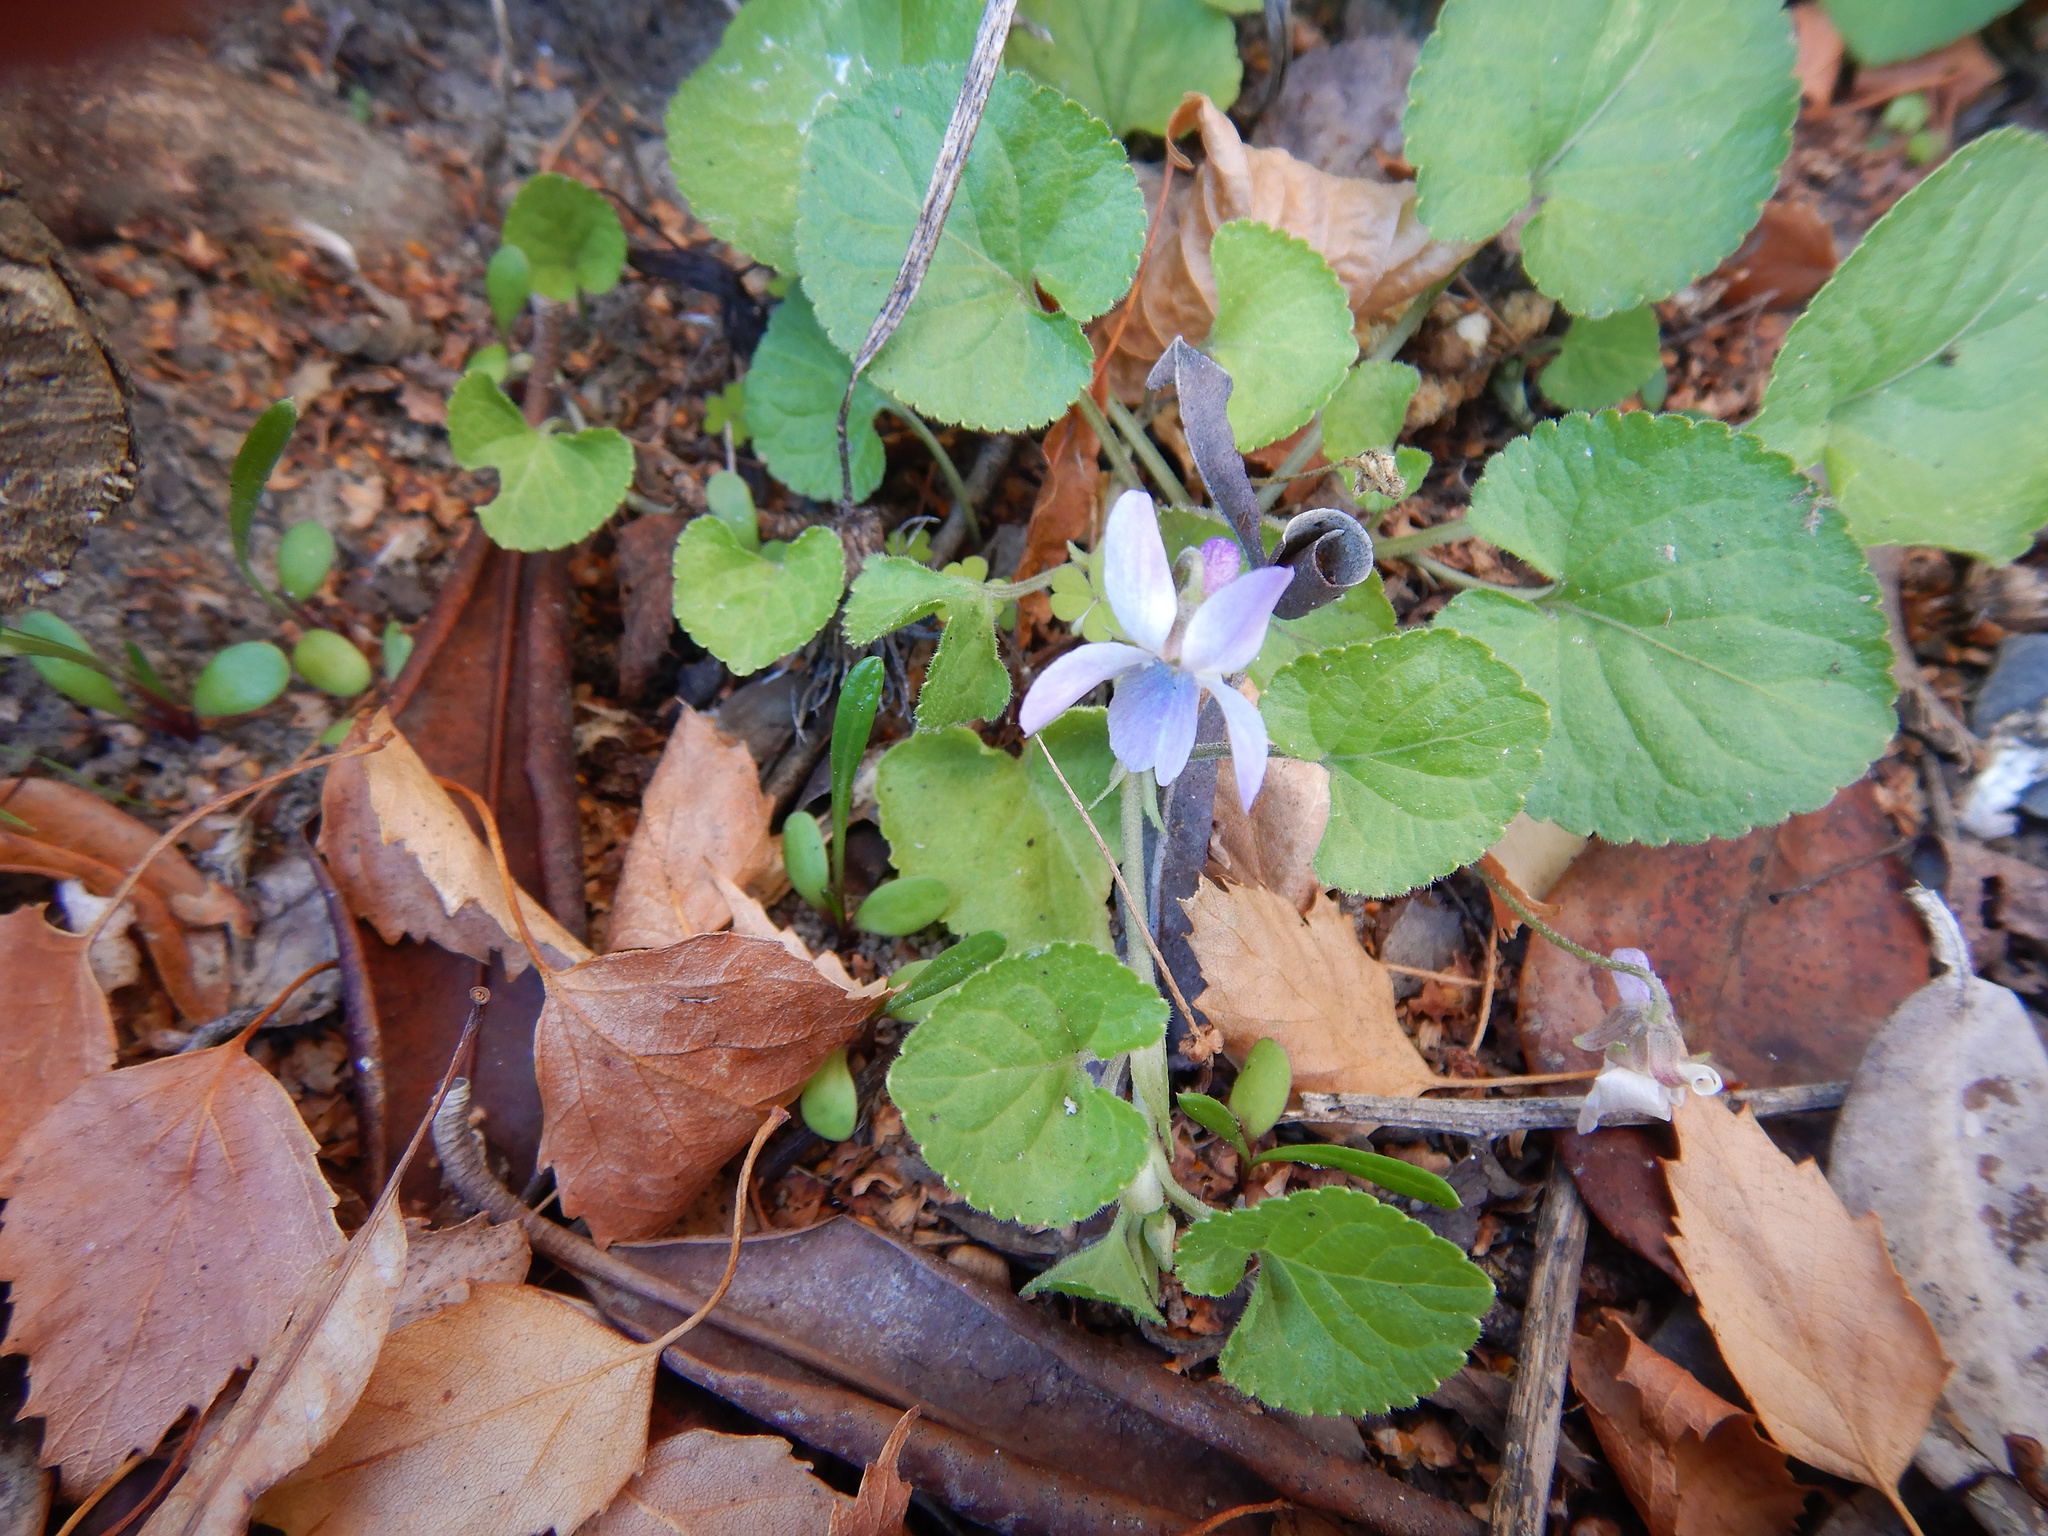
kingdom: Plantae
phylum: Tracheophyta
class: Magnoliopsida
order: Malpighiales
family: Violaceae
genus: Viola
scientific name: Viola odorata
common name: Sweet violet
